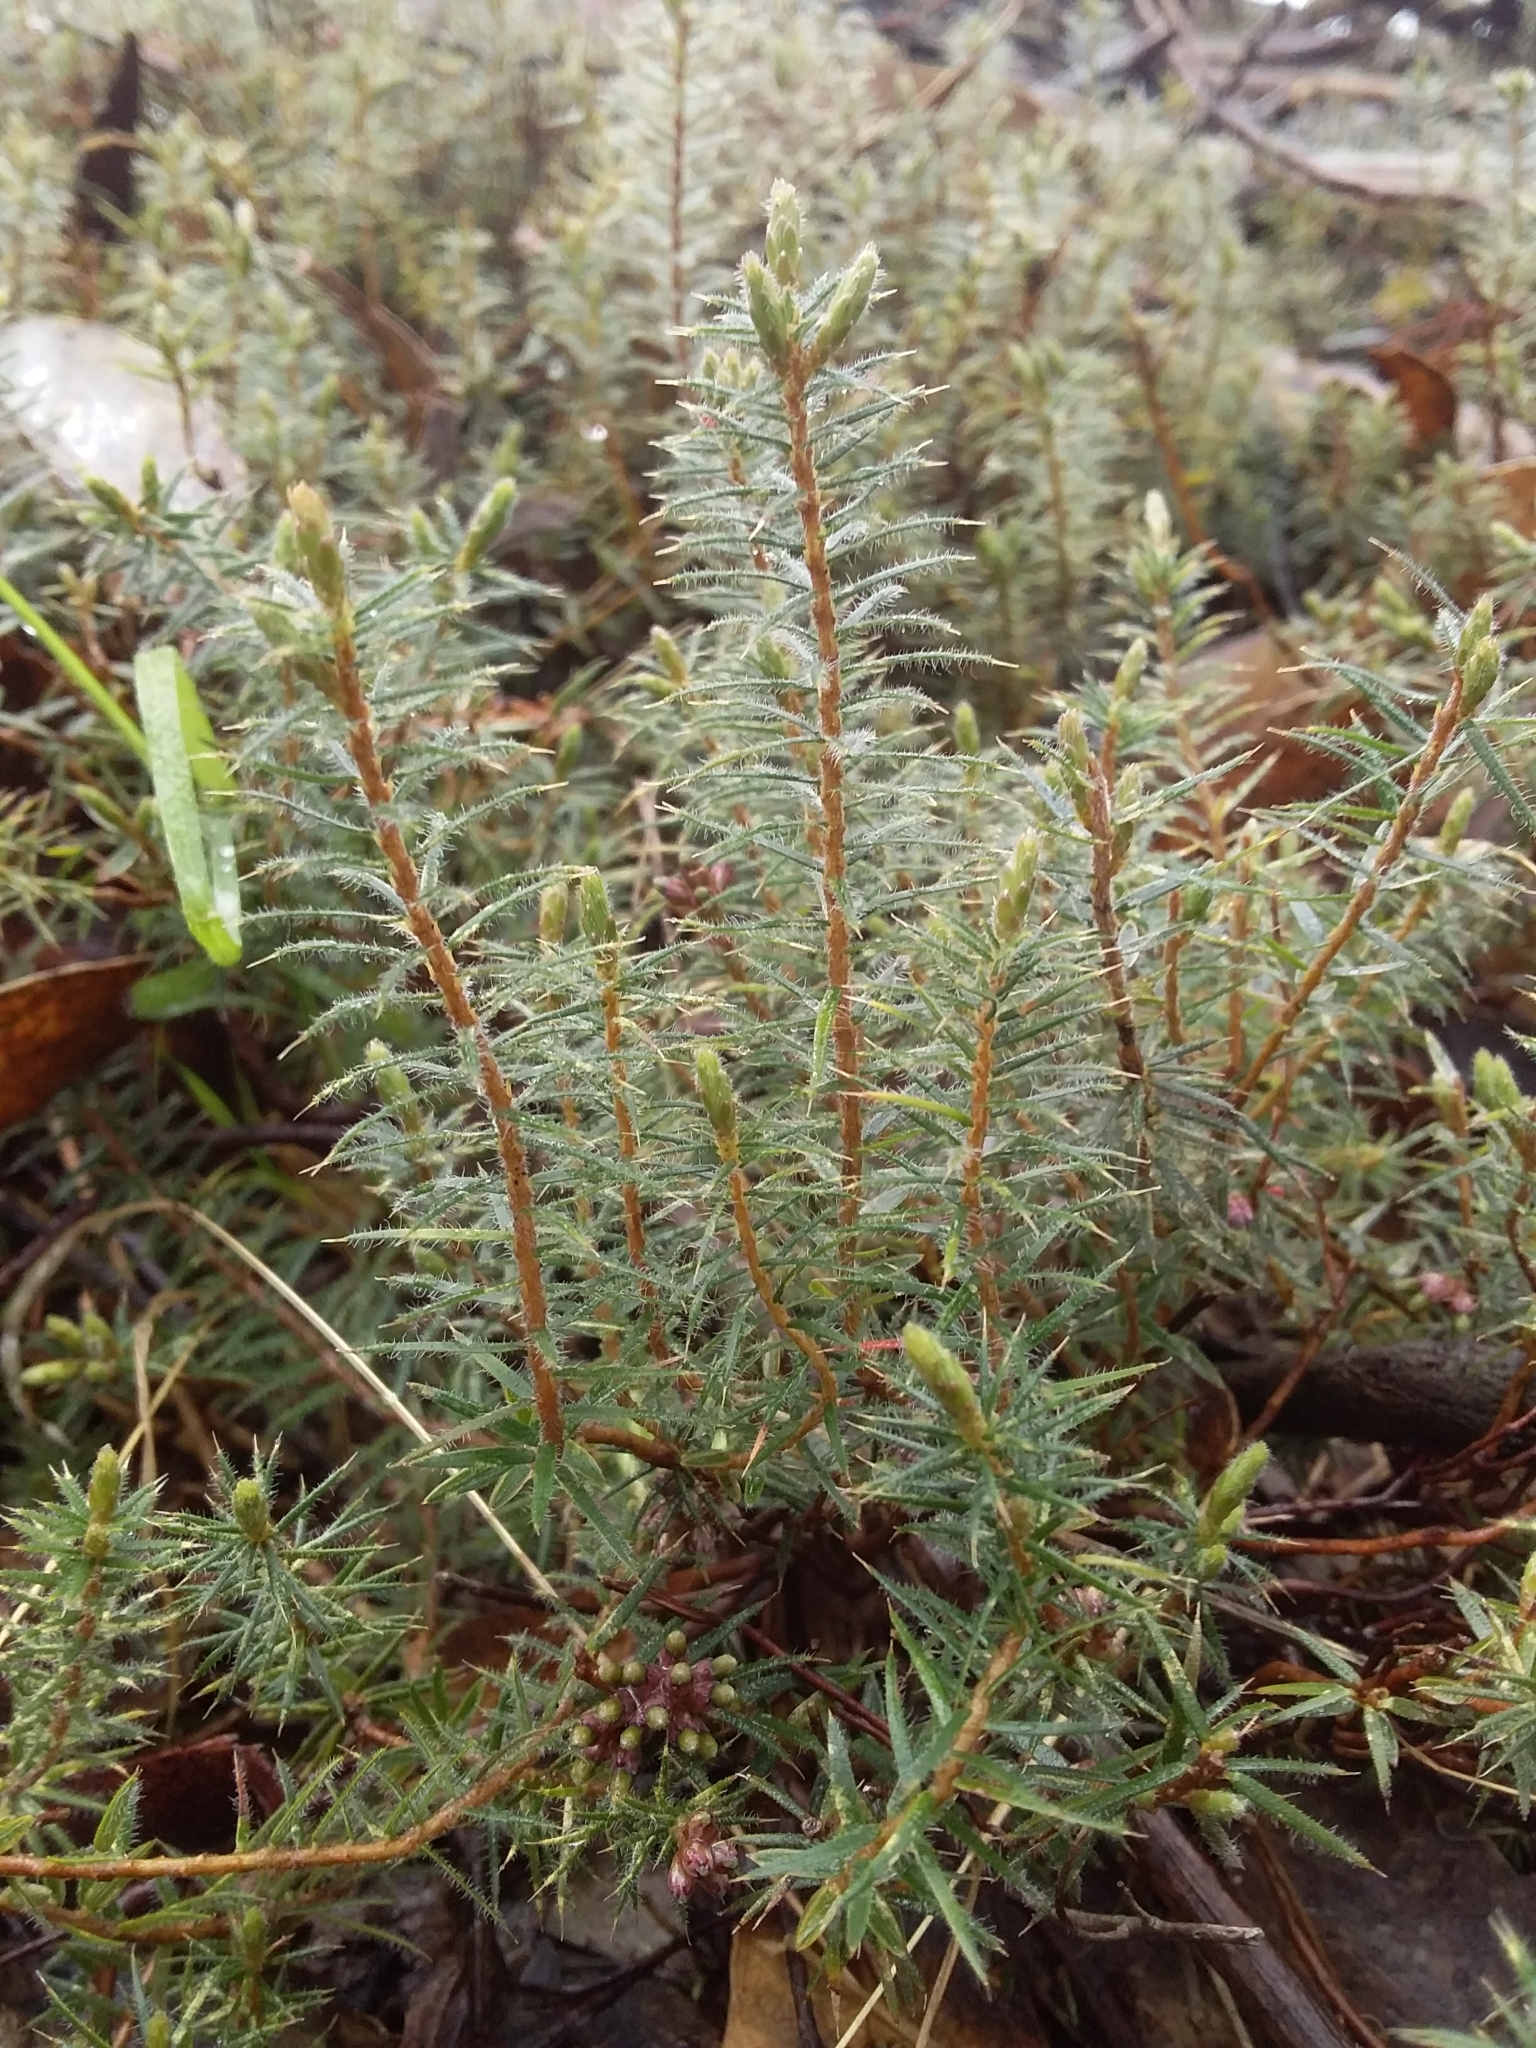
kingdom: Plantae
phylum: Tracheophyta
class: Magnoliopsida
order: Ericales
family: Ericaceae
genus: Acrotriche
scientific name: Acrotriche serrulata
